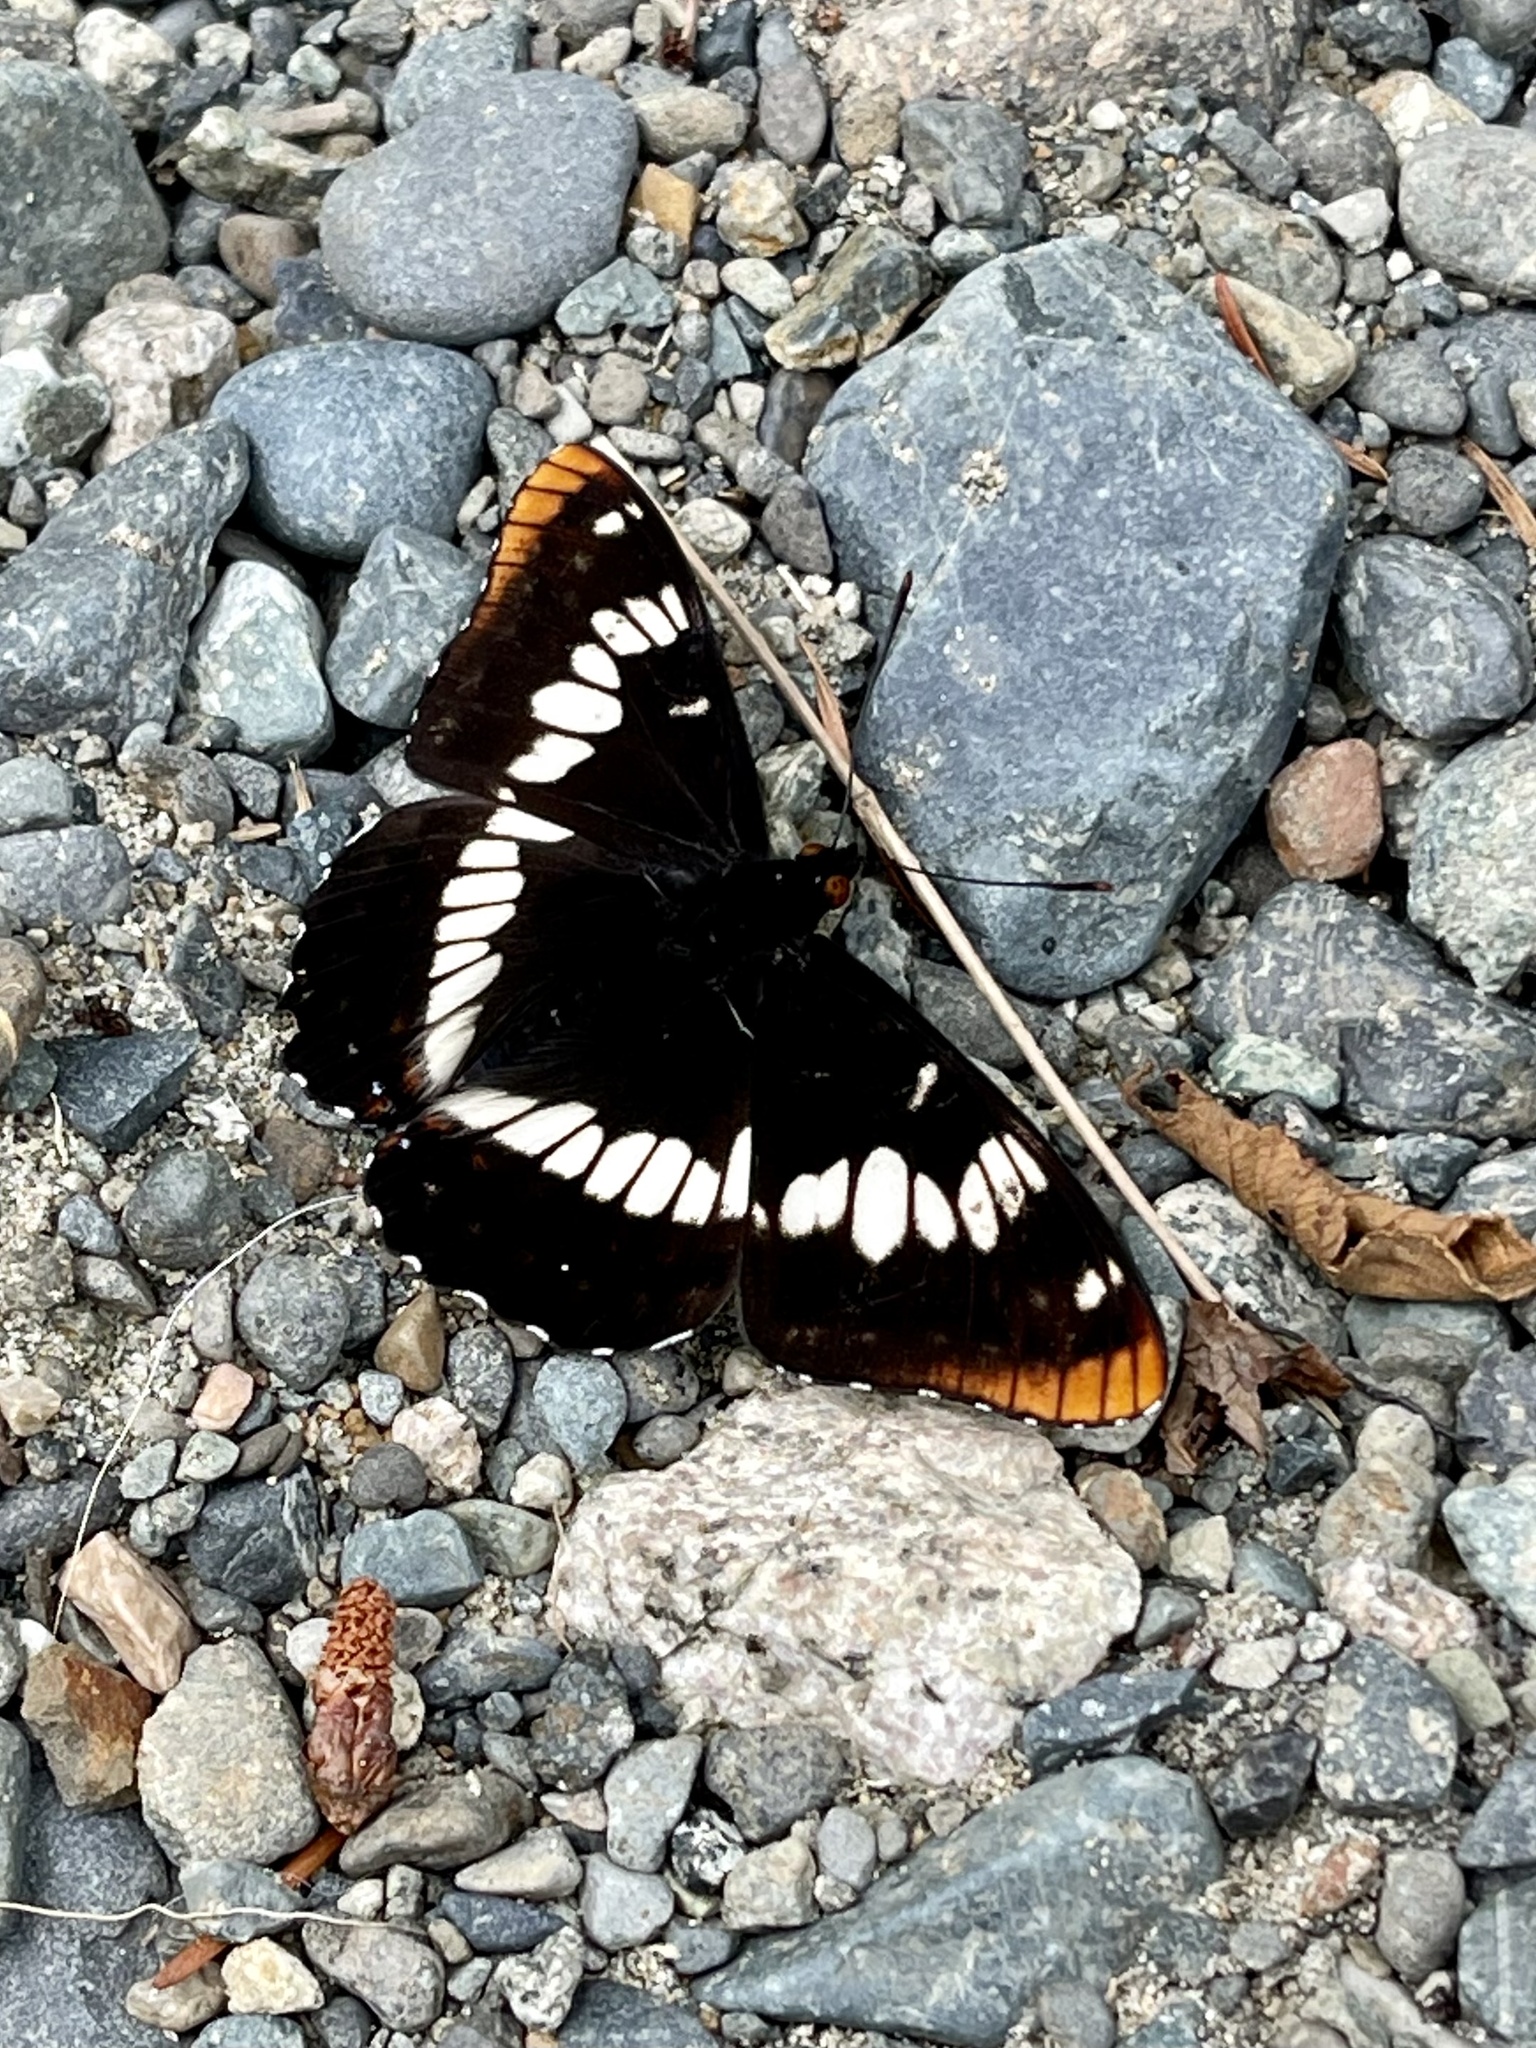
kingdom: Animalia
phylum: Arthropoda
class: Insecta
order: Lepidoptera
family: Nymphalidae
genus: Limenitis
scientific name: Limenitis lorquini
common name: Lorquin's admiral
